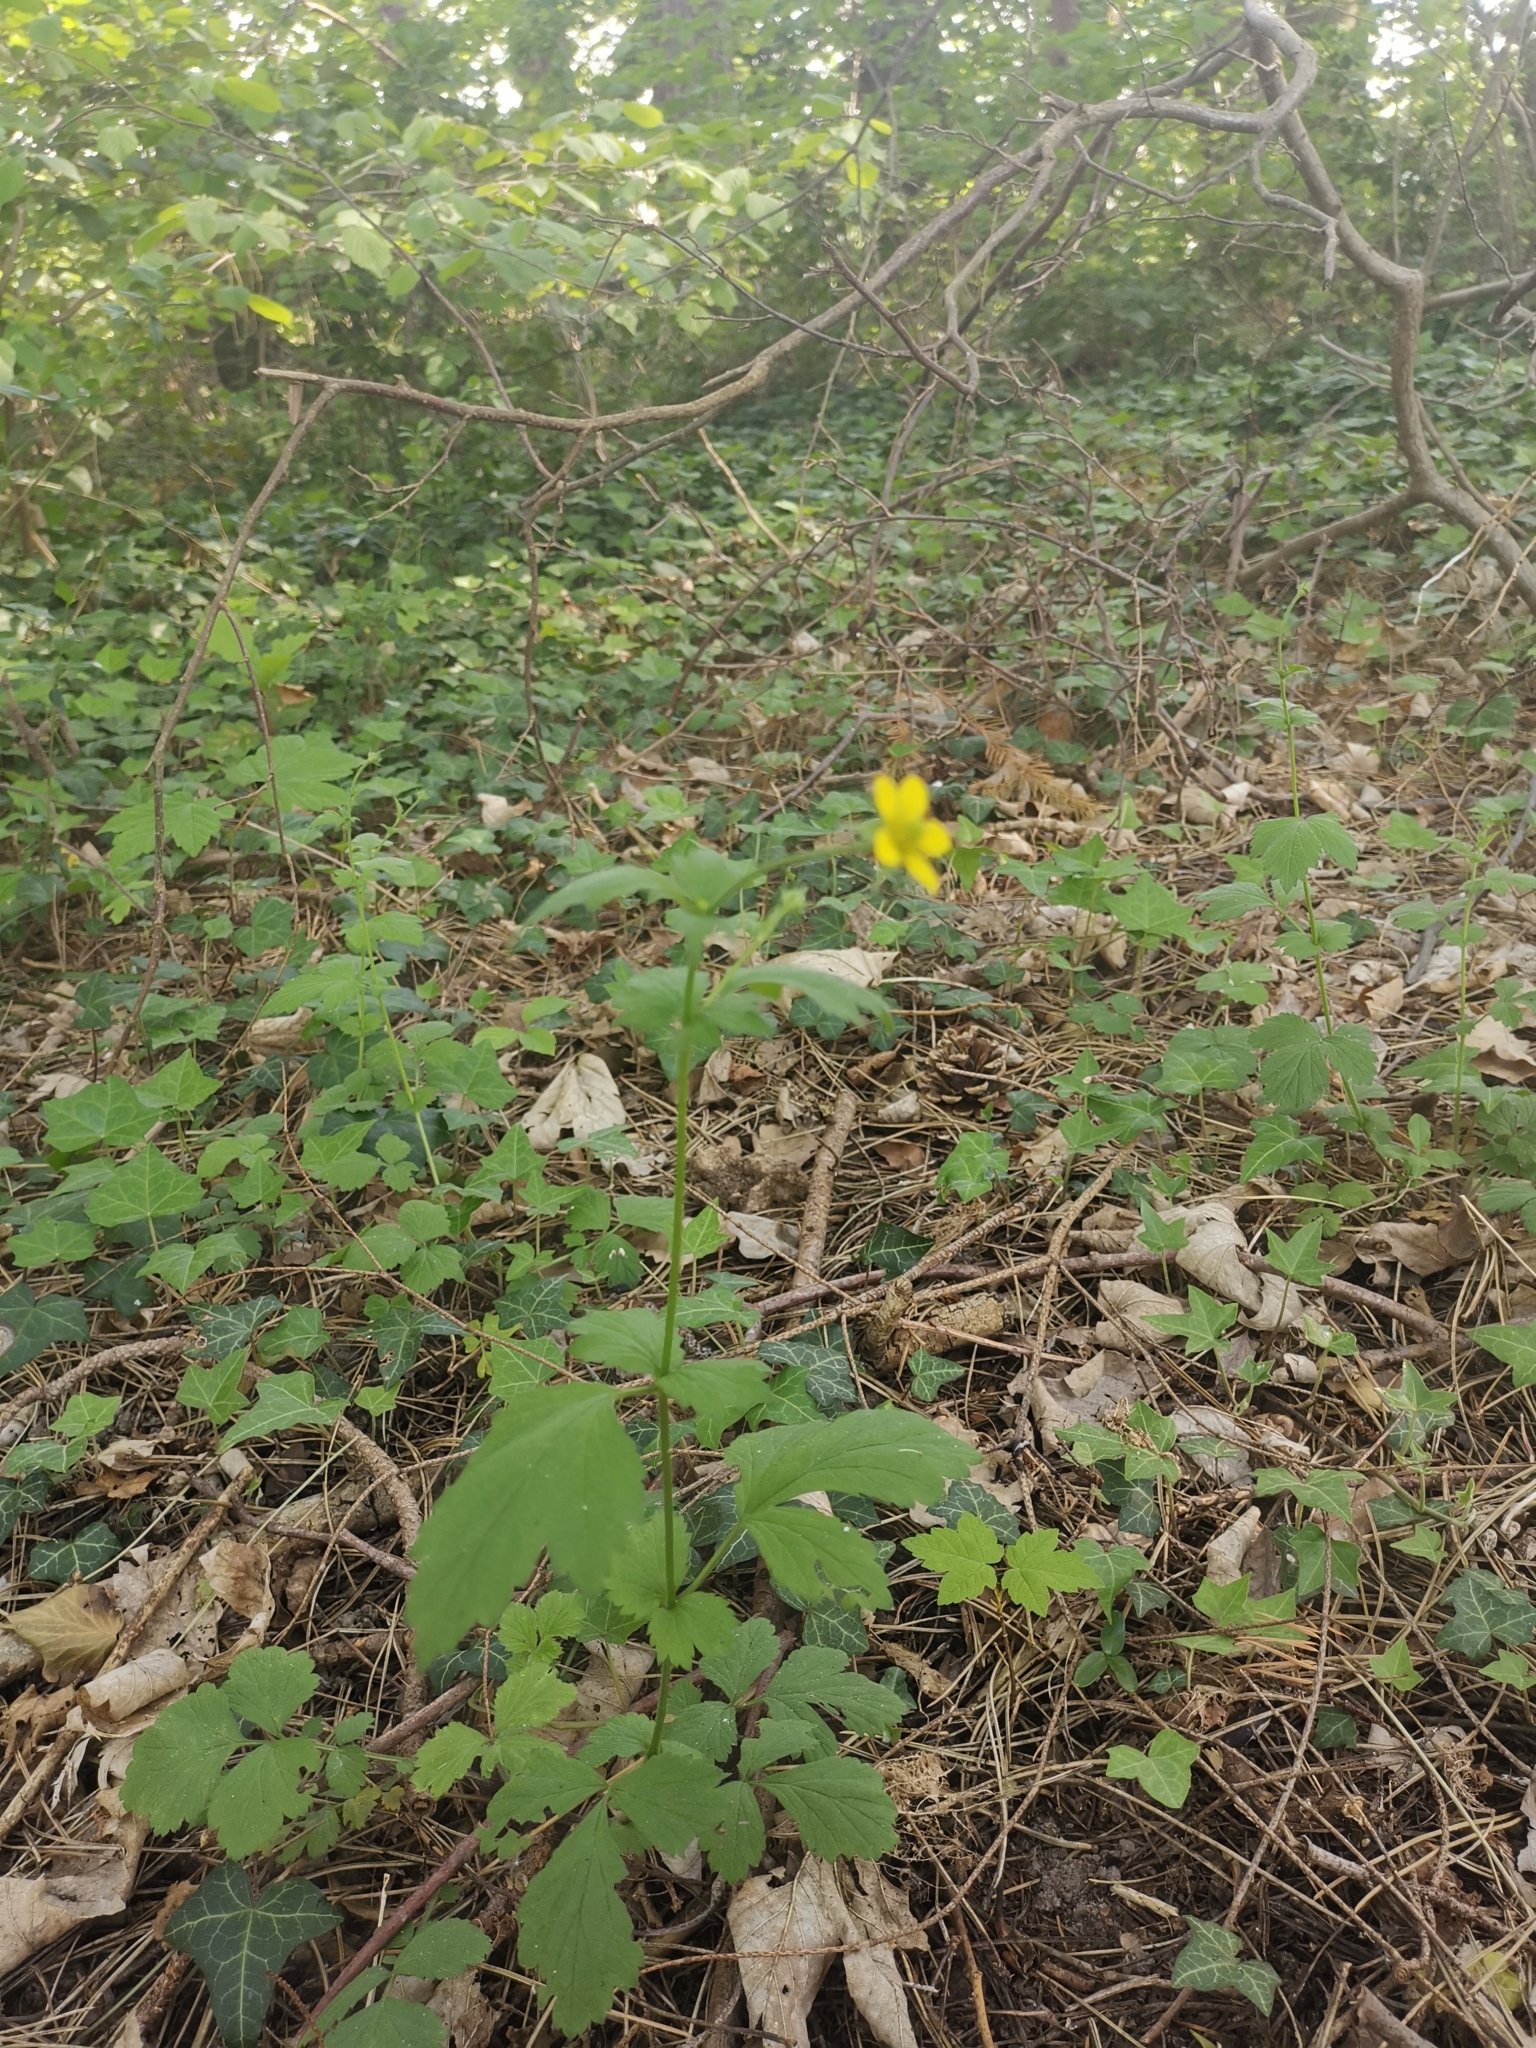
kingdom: Plantae
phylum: Tracheophyta
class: Magnoliopsida
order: Rosales
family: Rosaceae
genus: Geum
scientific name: Geum urbanum
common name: Wood avens
